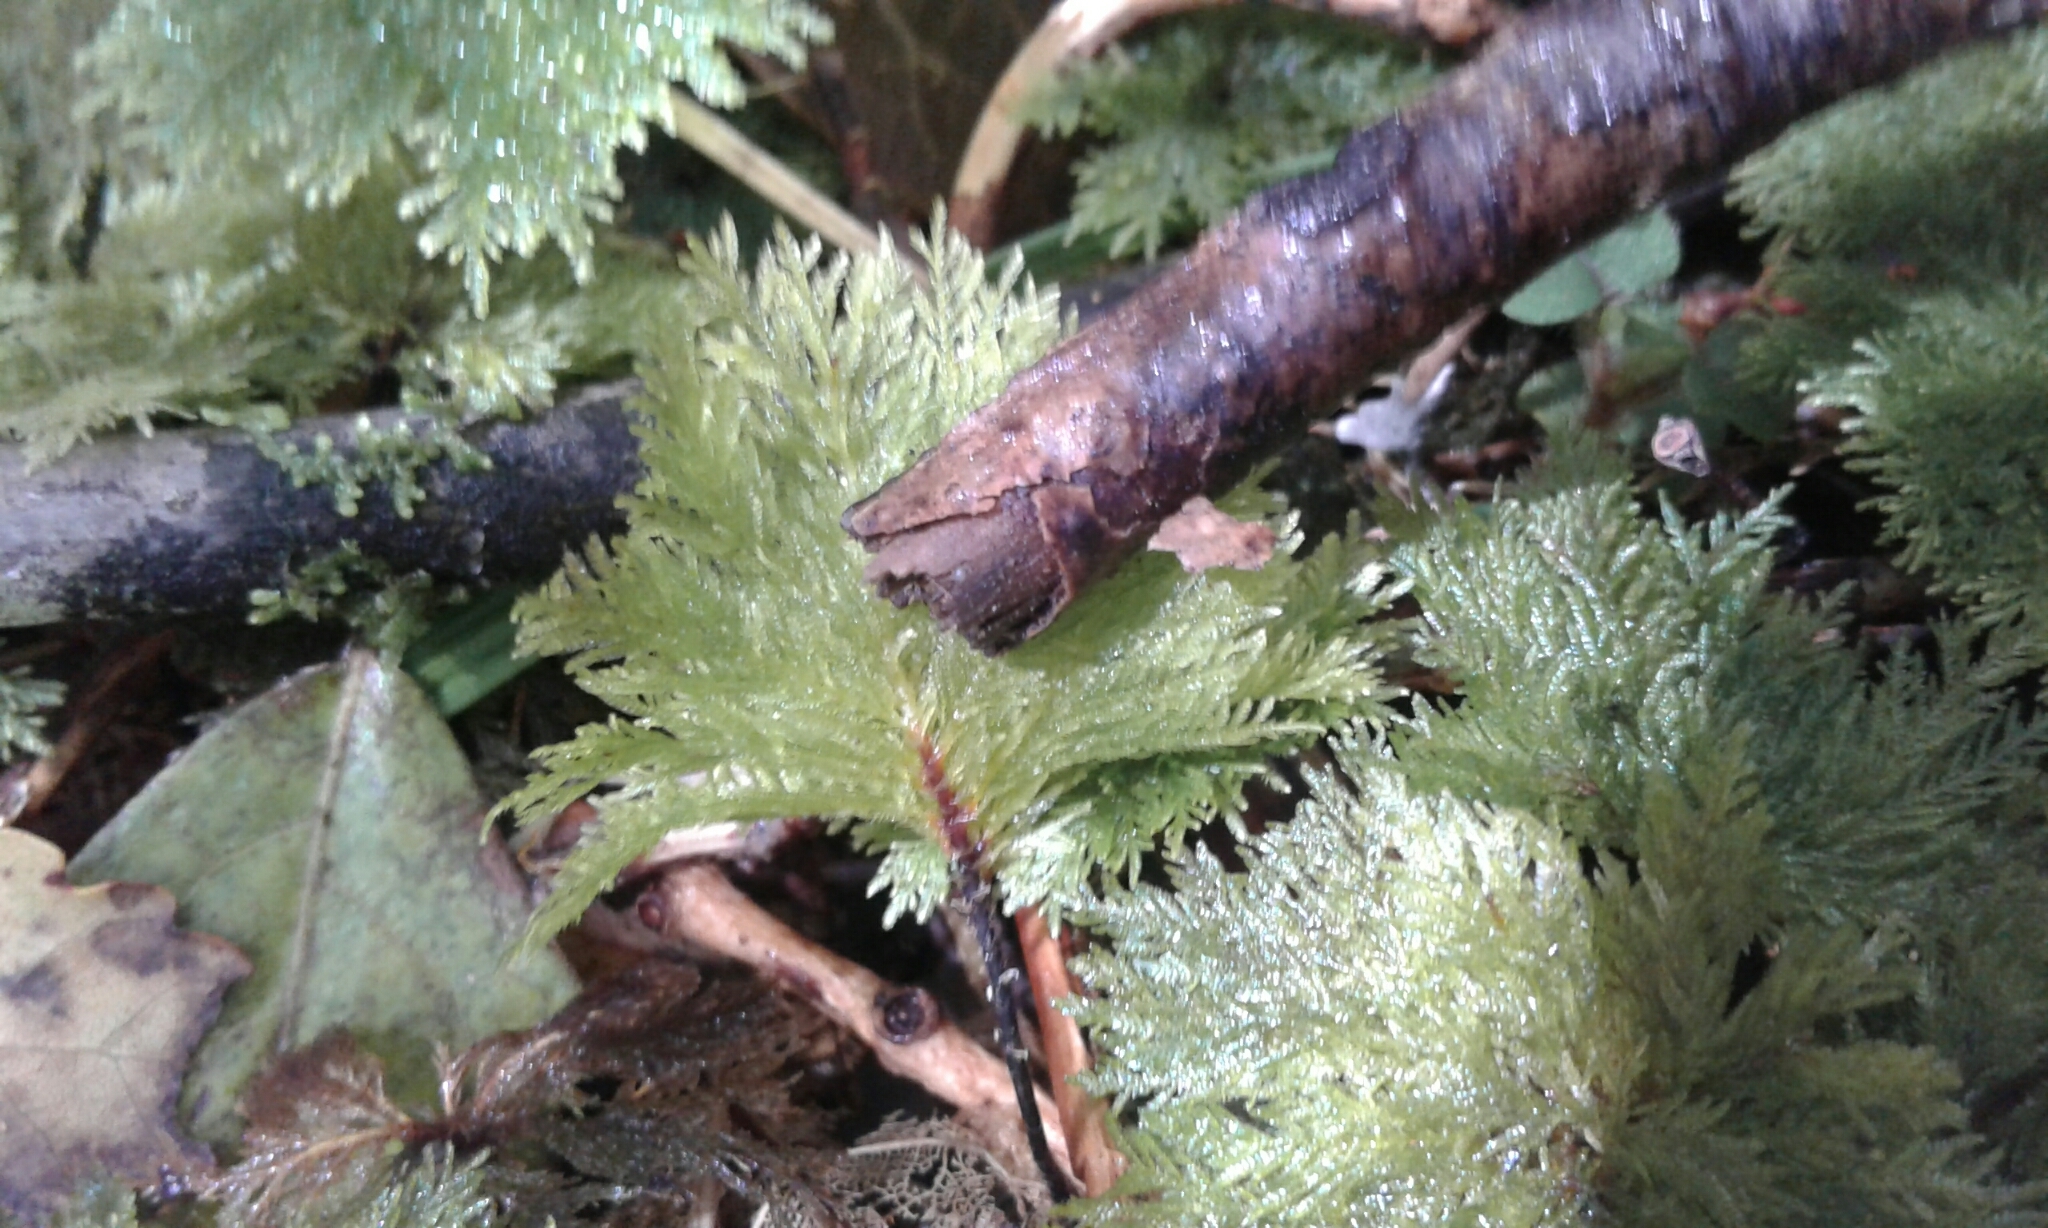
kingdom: Plantae
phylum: Bryophyta
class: Bryopsida
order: Hypopterygiales
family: Hypopterygiaceae
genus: Dendrohypopterygium
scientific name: Dendrohypopterygium filiculiforme
